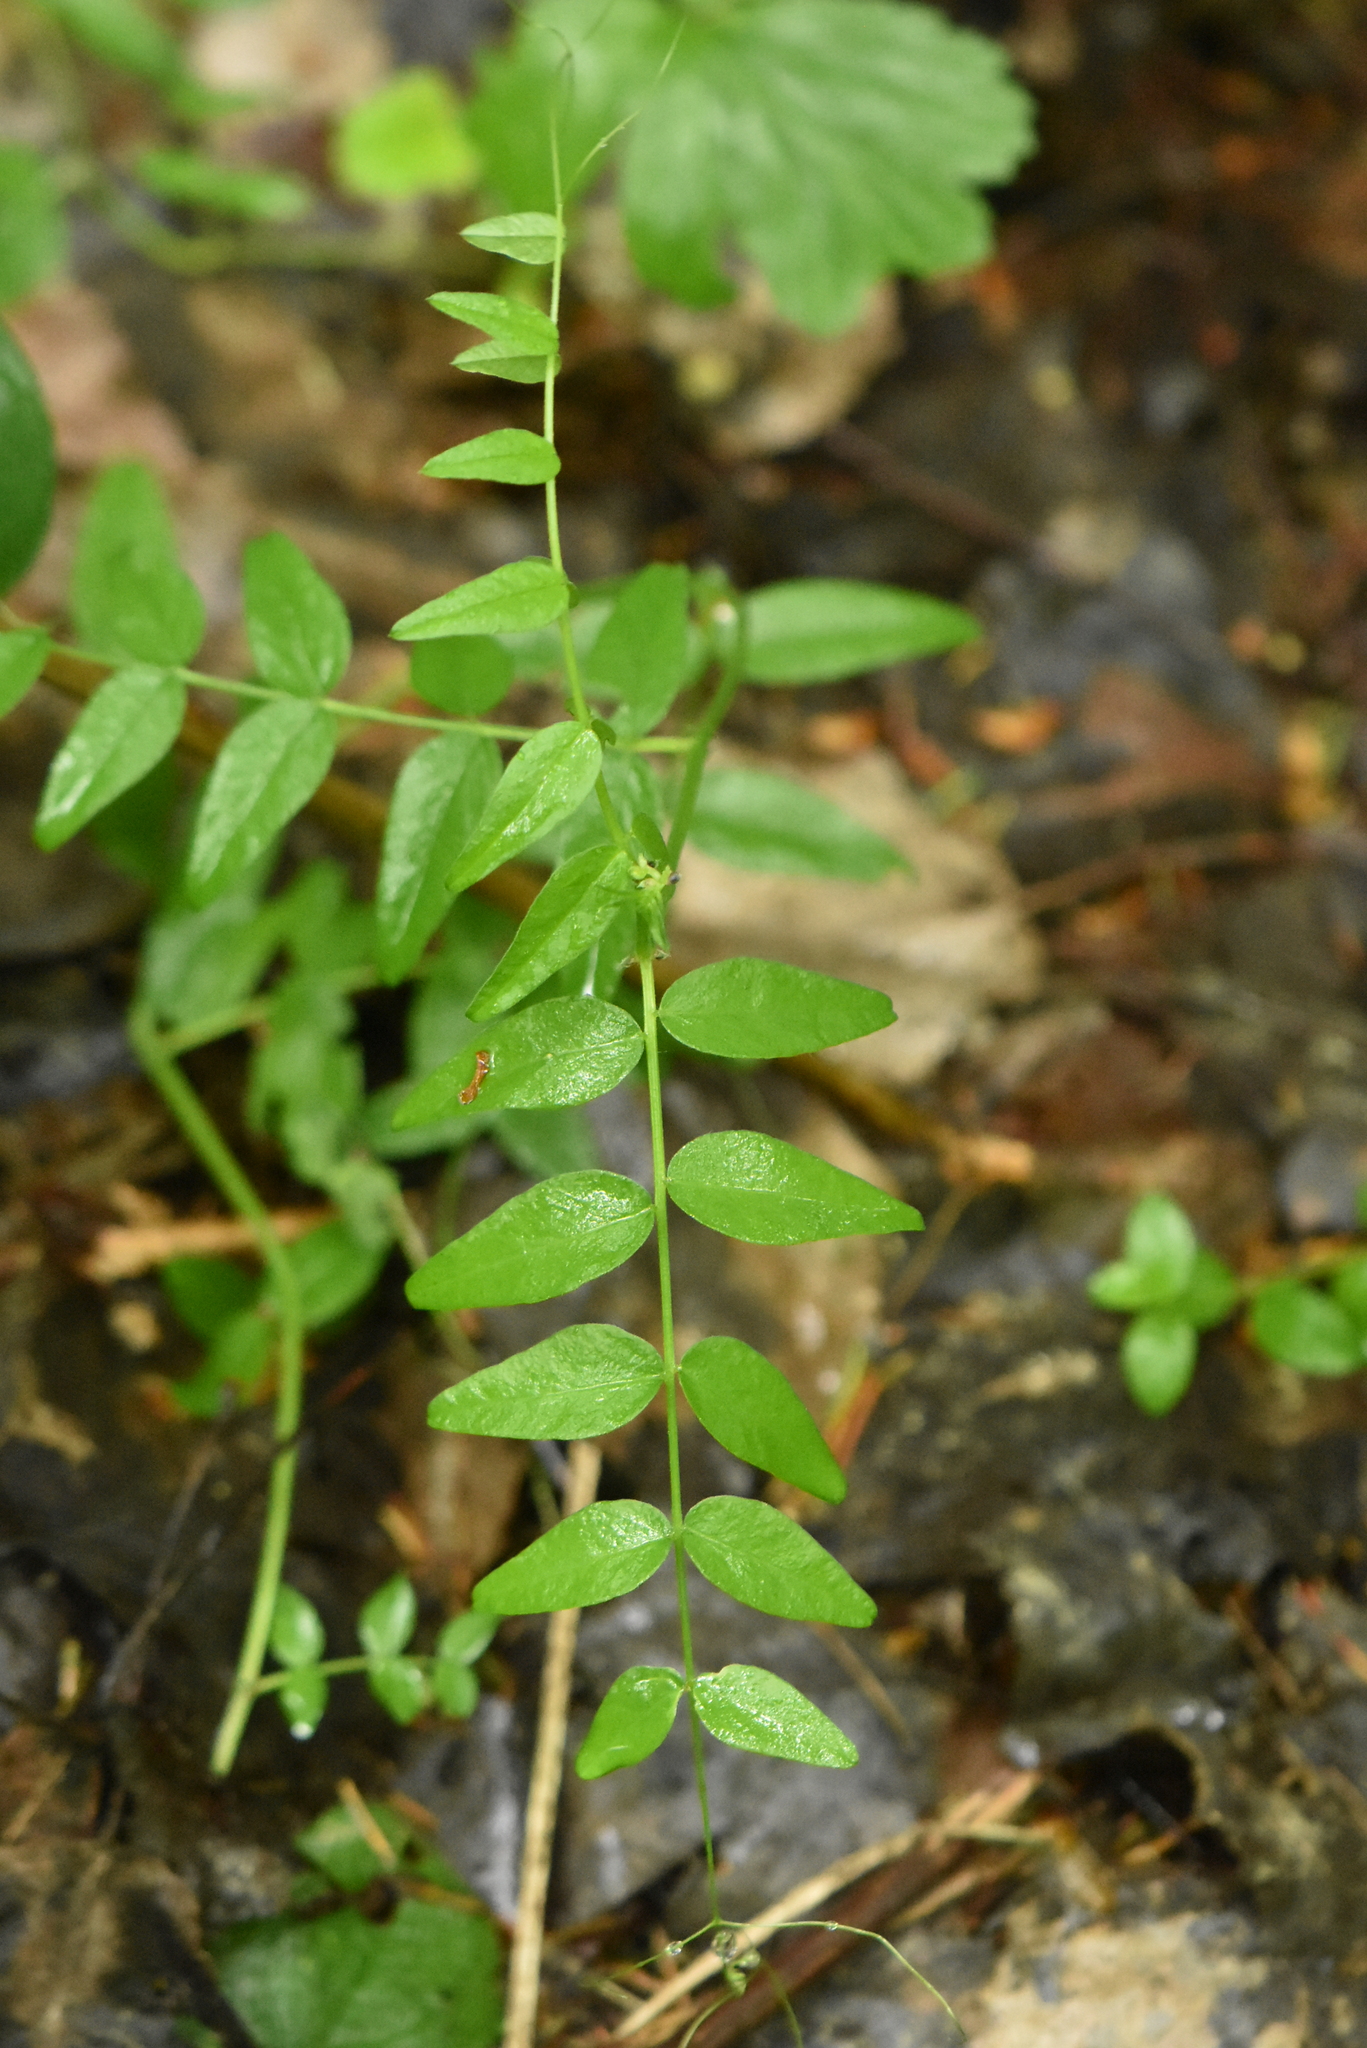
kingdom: Plantae
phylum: Tracheophyta
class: Magnoliopsida
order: Fabales
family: Fabaceae
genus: Vicia
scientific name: Vicia sepium
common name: Bush vetch
